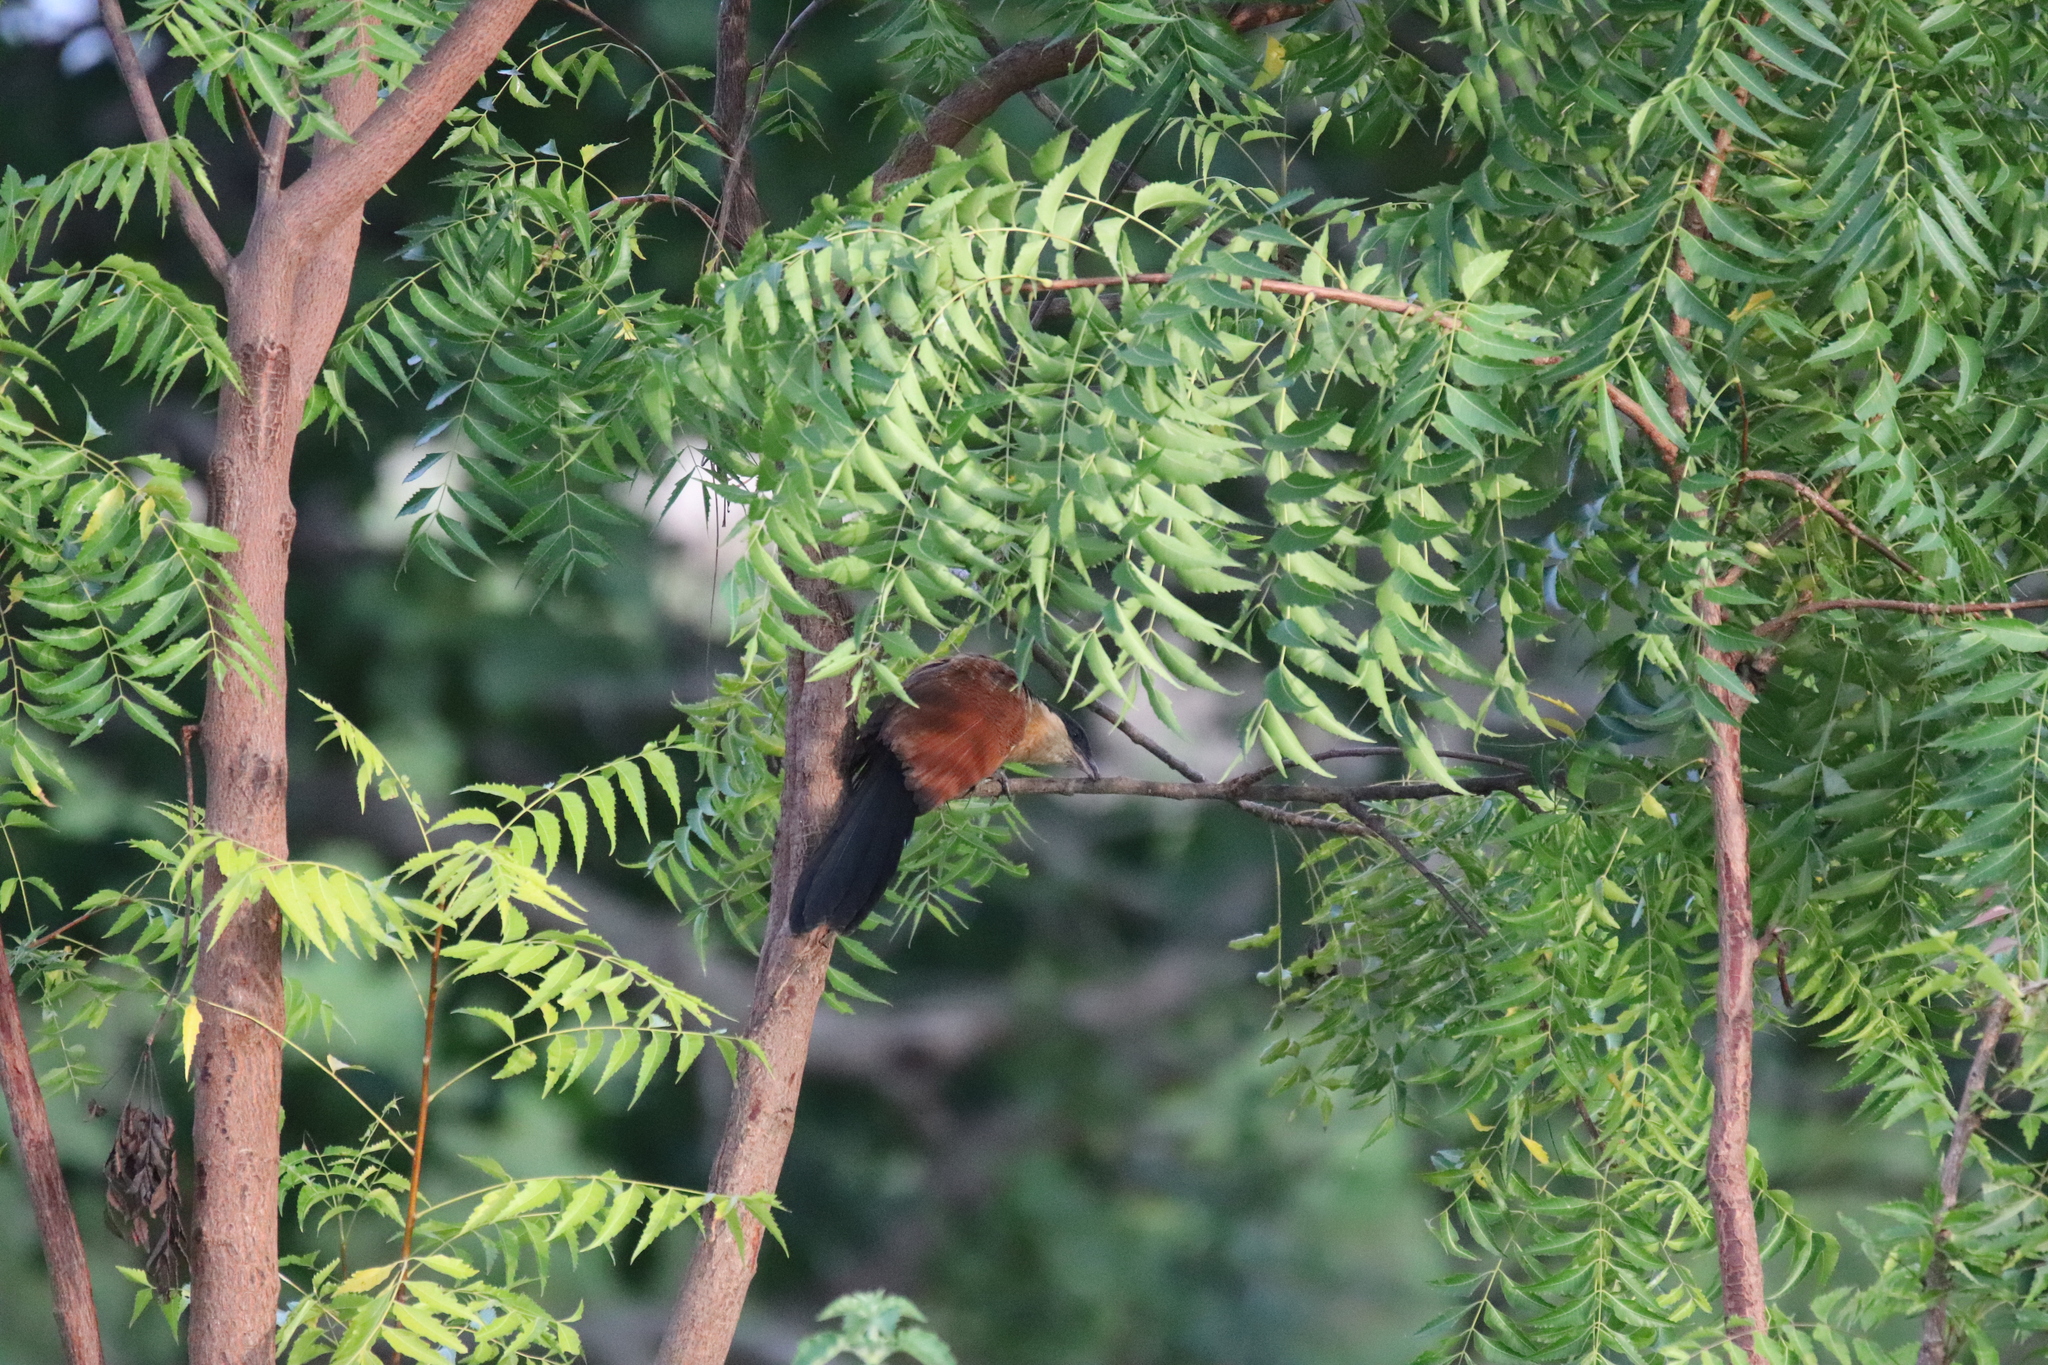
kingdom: Animalia
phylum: Chordata
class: Aves
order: Cuculiformes
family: Cuculidae
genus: Centropus
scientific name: Centropus senegalensis
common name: Senegal coucal
